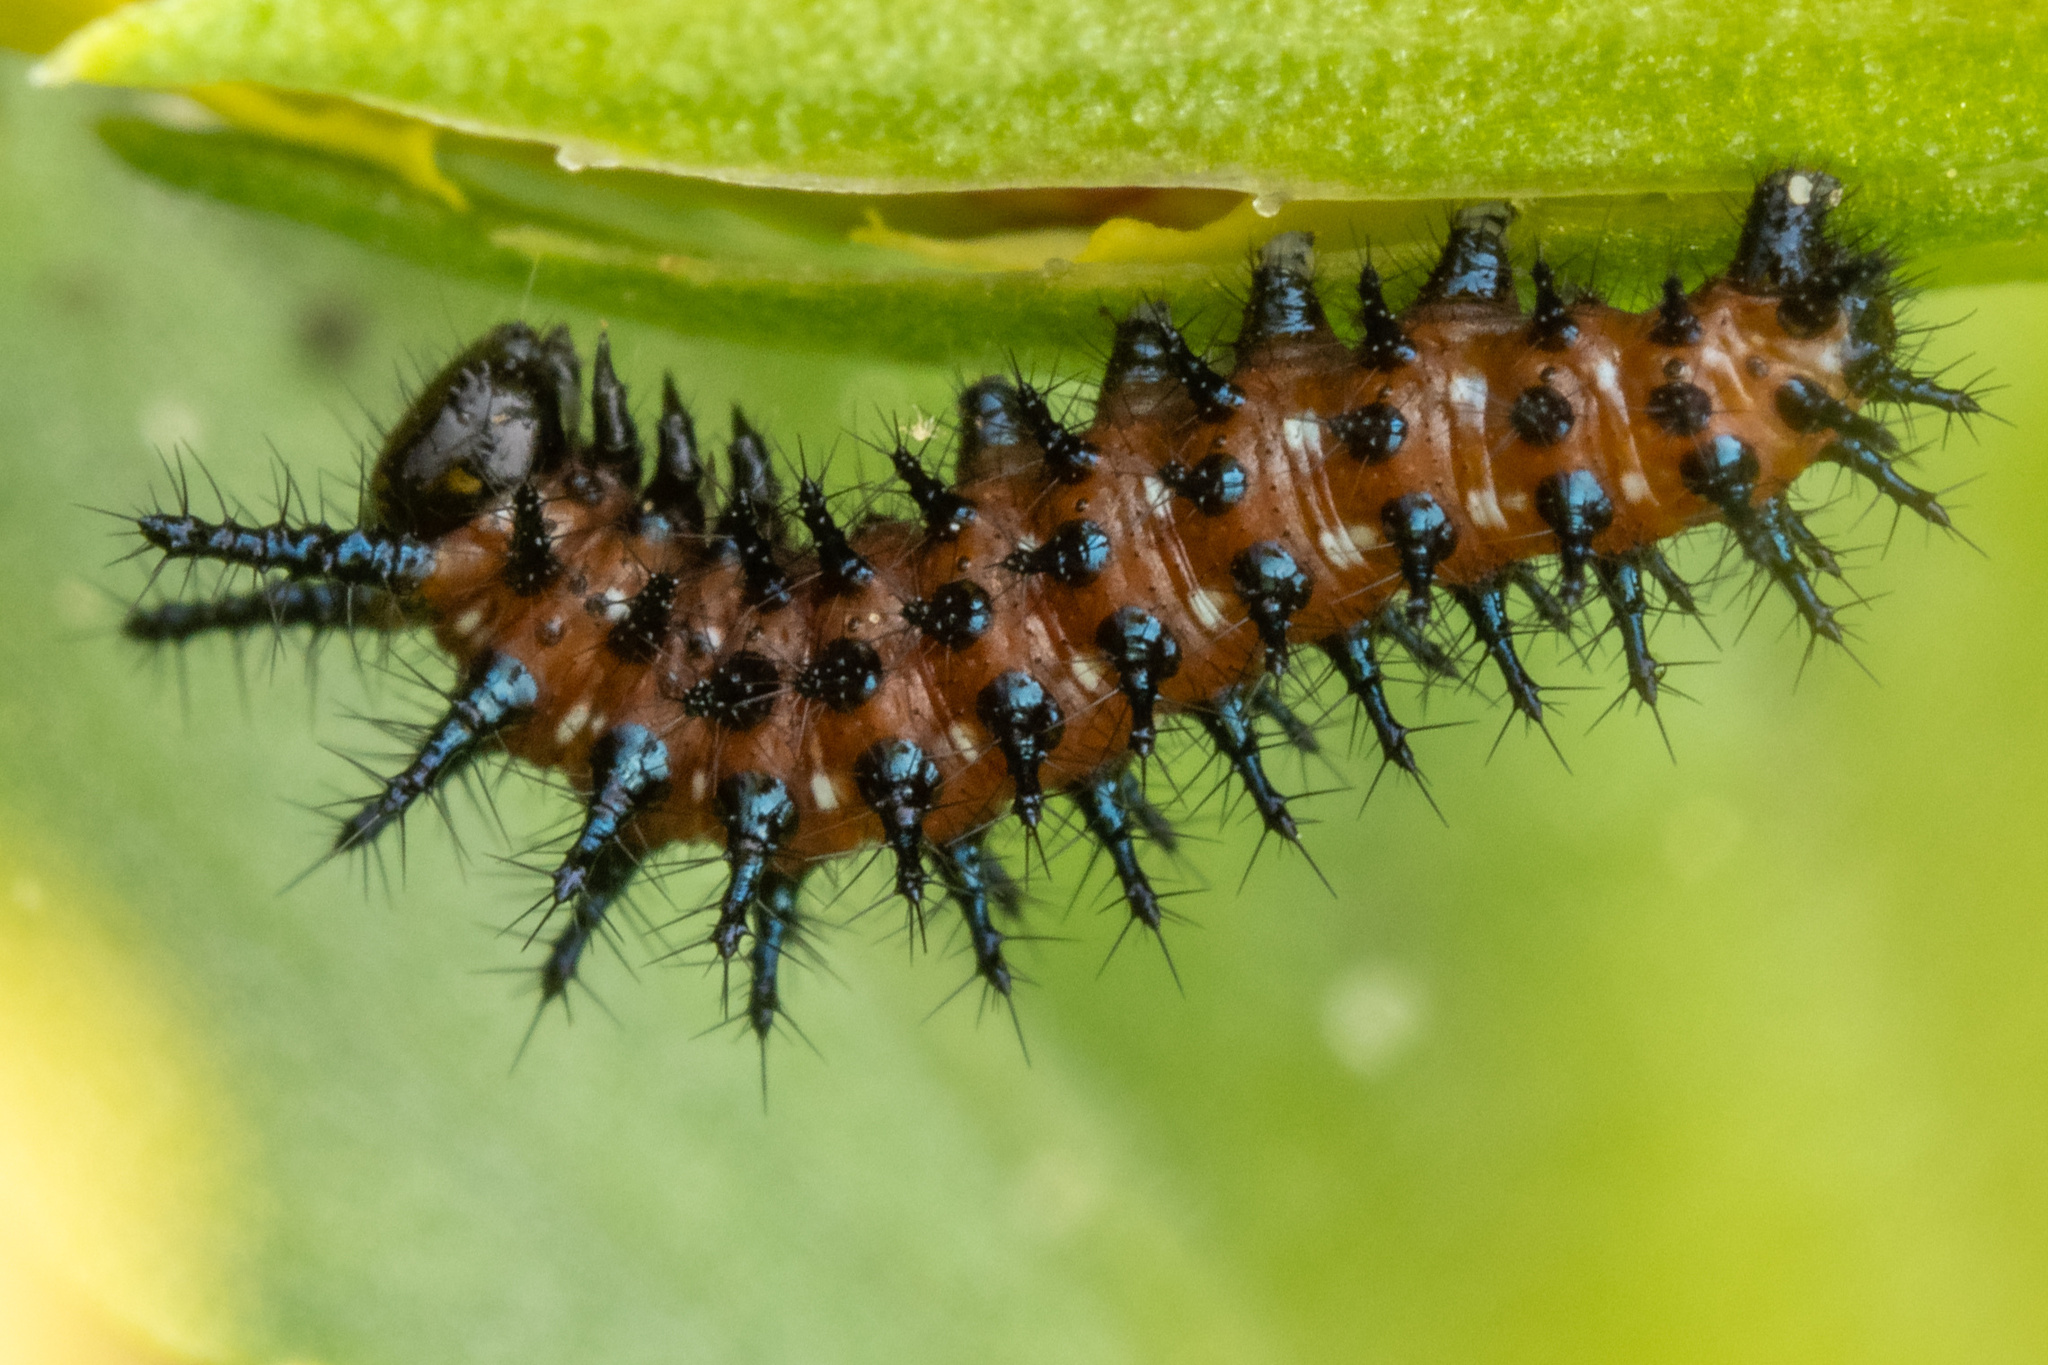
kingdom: Animalia
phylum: Arthropoda
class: Insecta
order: Lepidoptera
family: Nymphalidae
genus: Dione
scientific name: Dione vanillae
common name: Gulf fritillary
